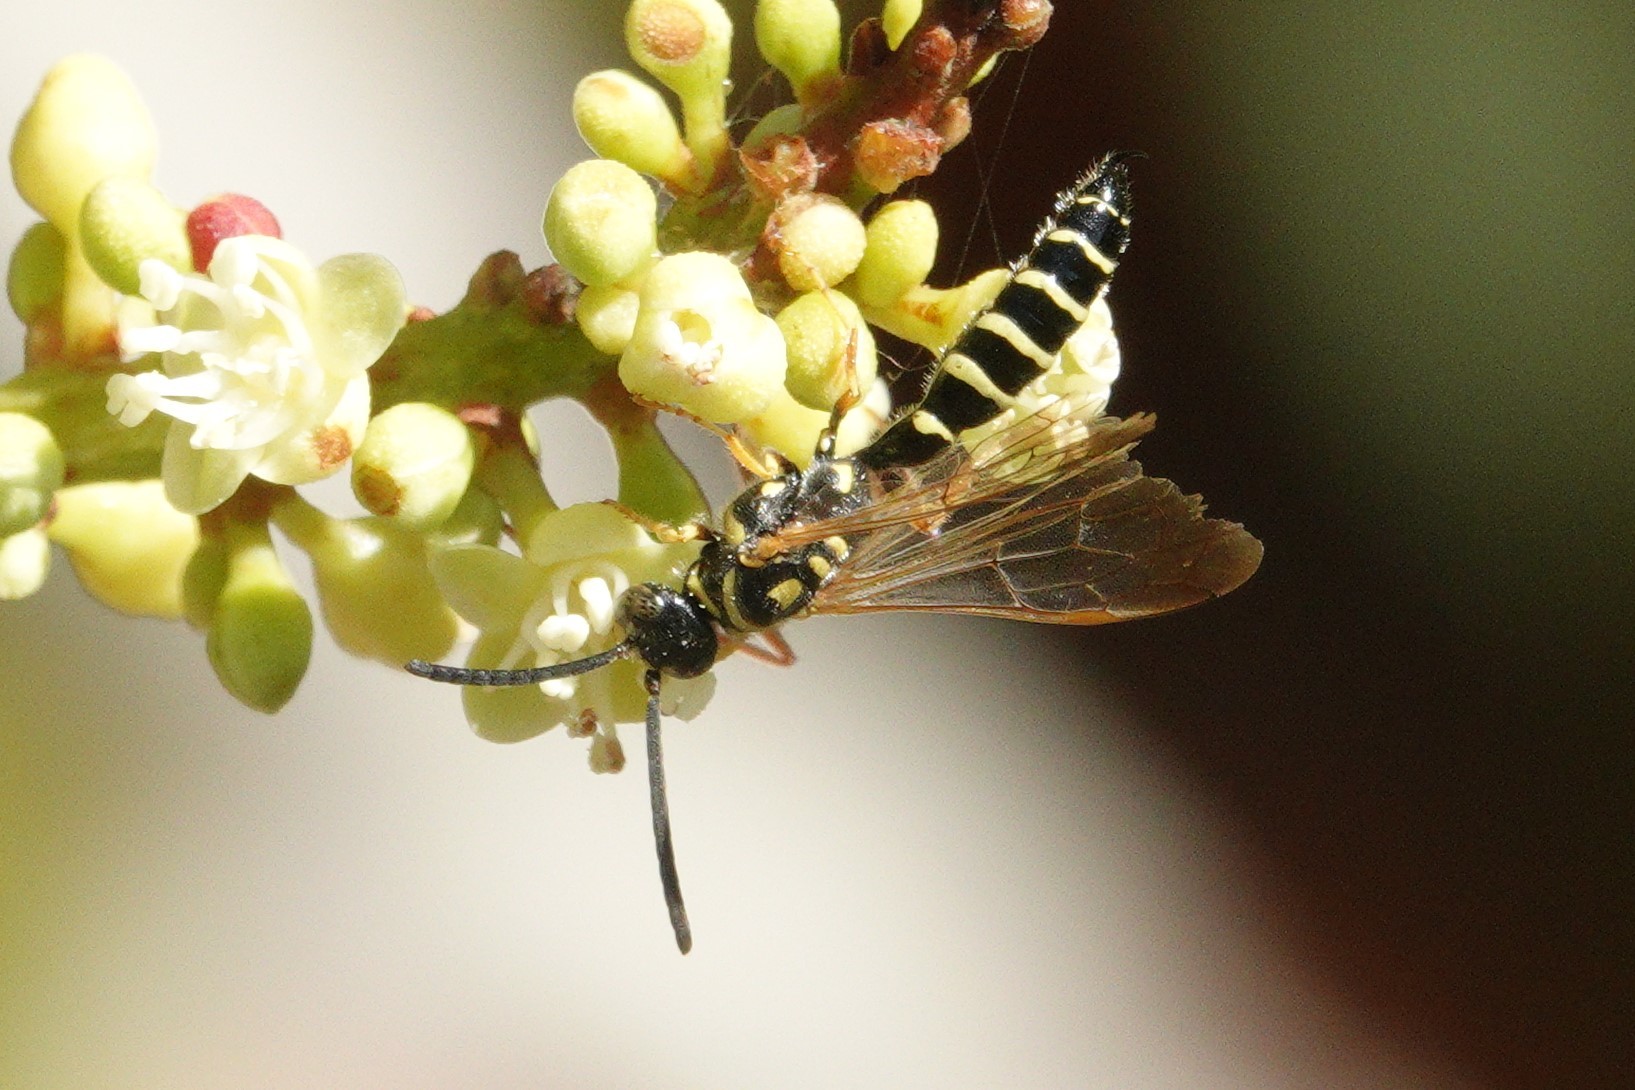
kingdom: Animalia
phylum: Arthropoda
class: Insecta
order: Hymenoptera
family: Tiphiidae
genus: Myzinum
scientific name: Myzinum
